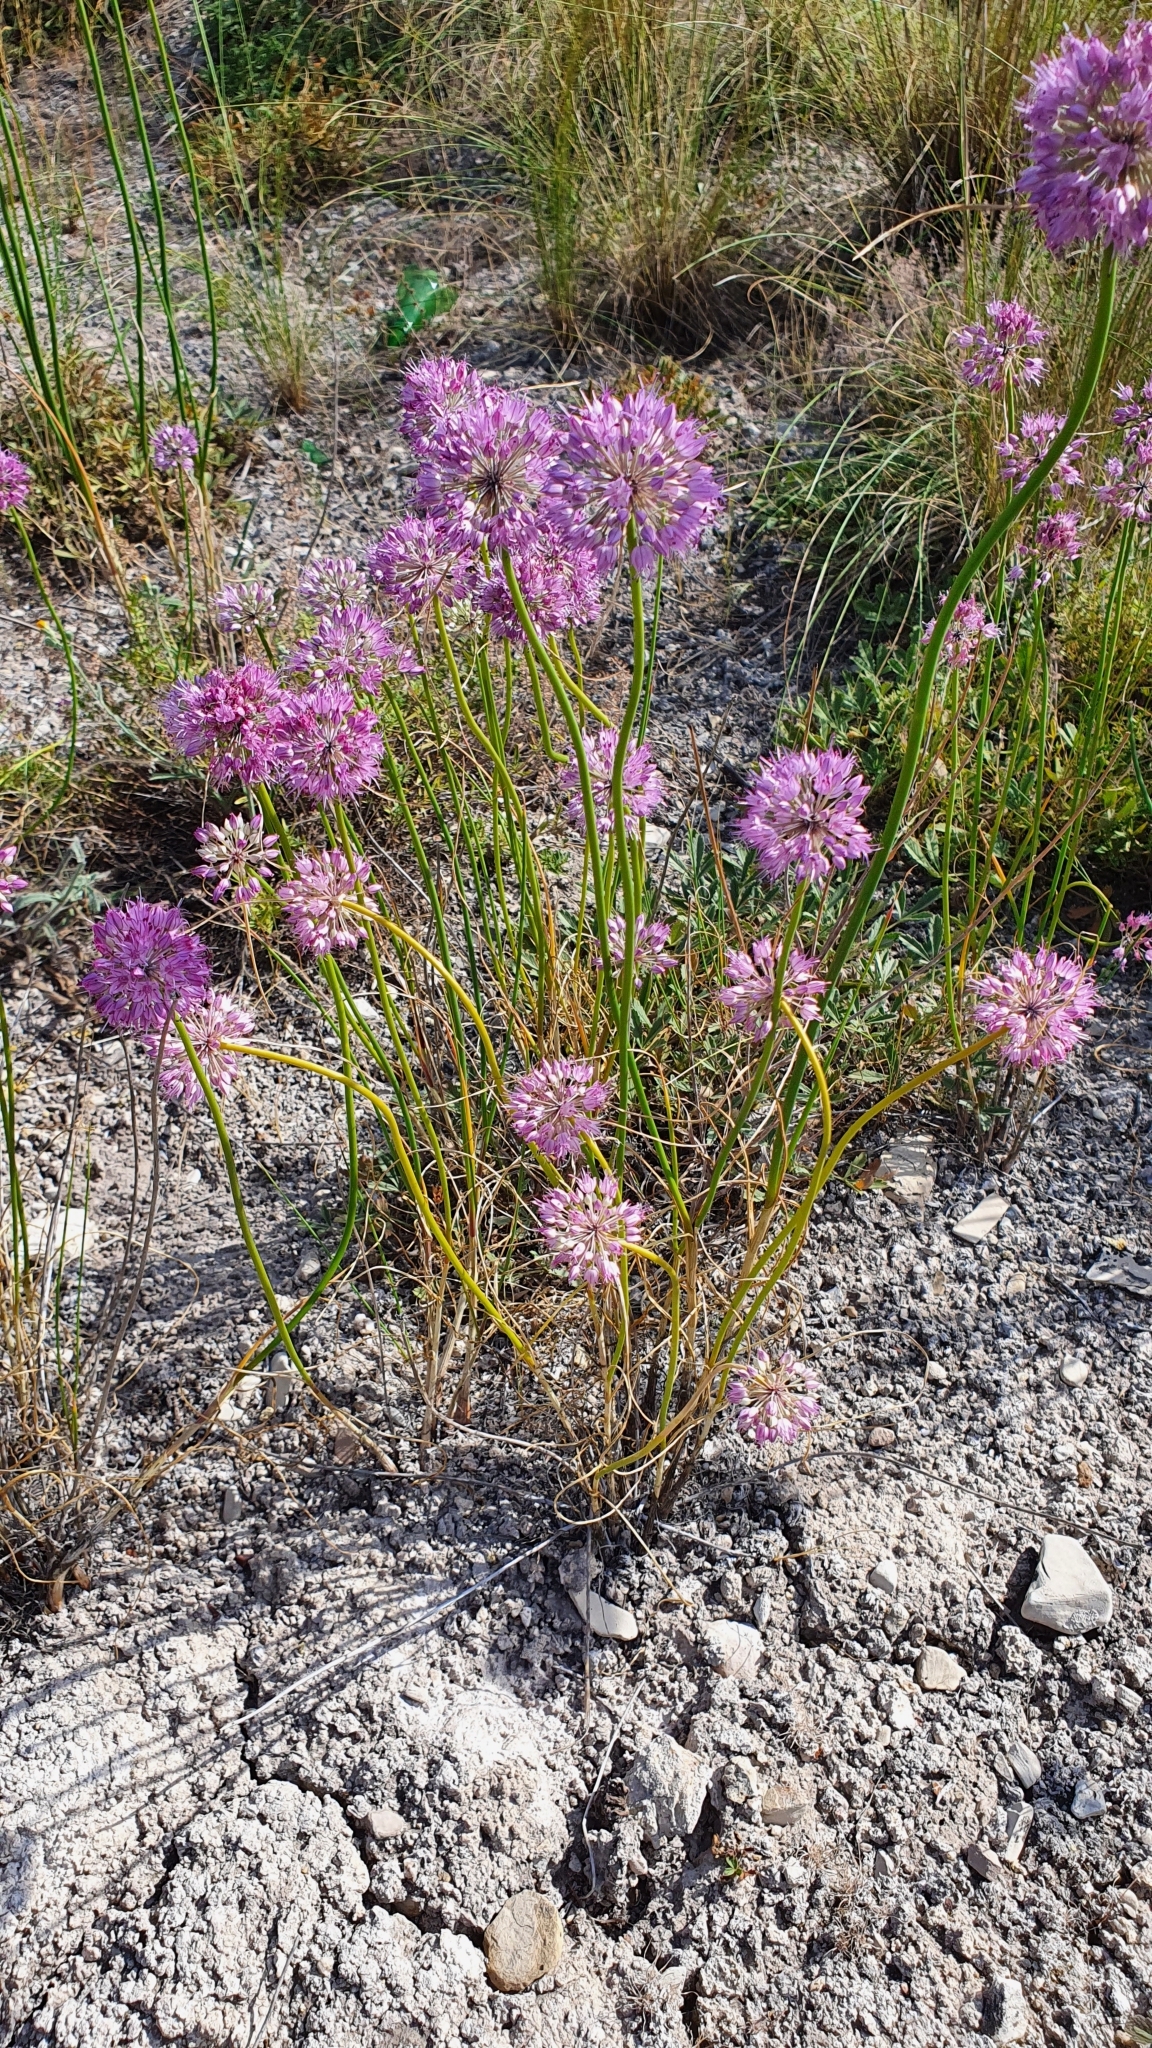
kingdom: Plantae
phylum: Tracheophyta
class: Liliopsida
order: Asparagales
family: Amaryllidaceae
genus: Allium
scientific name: Allium cretaceum
